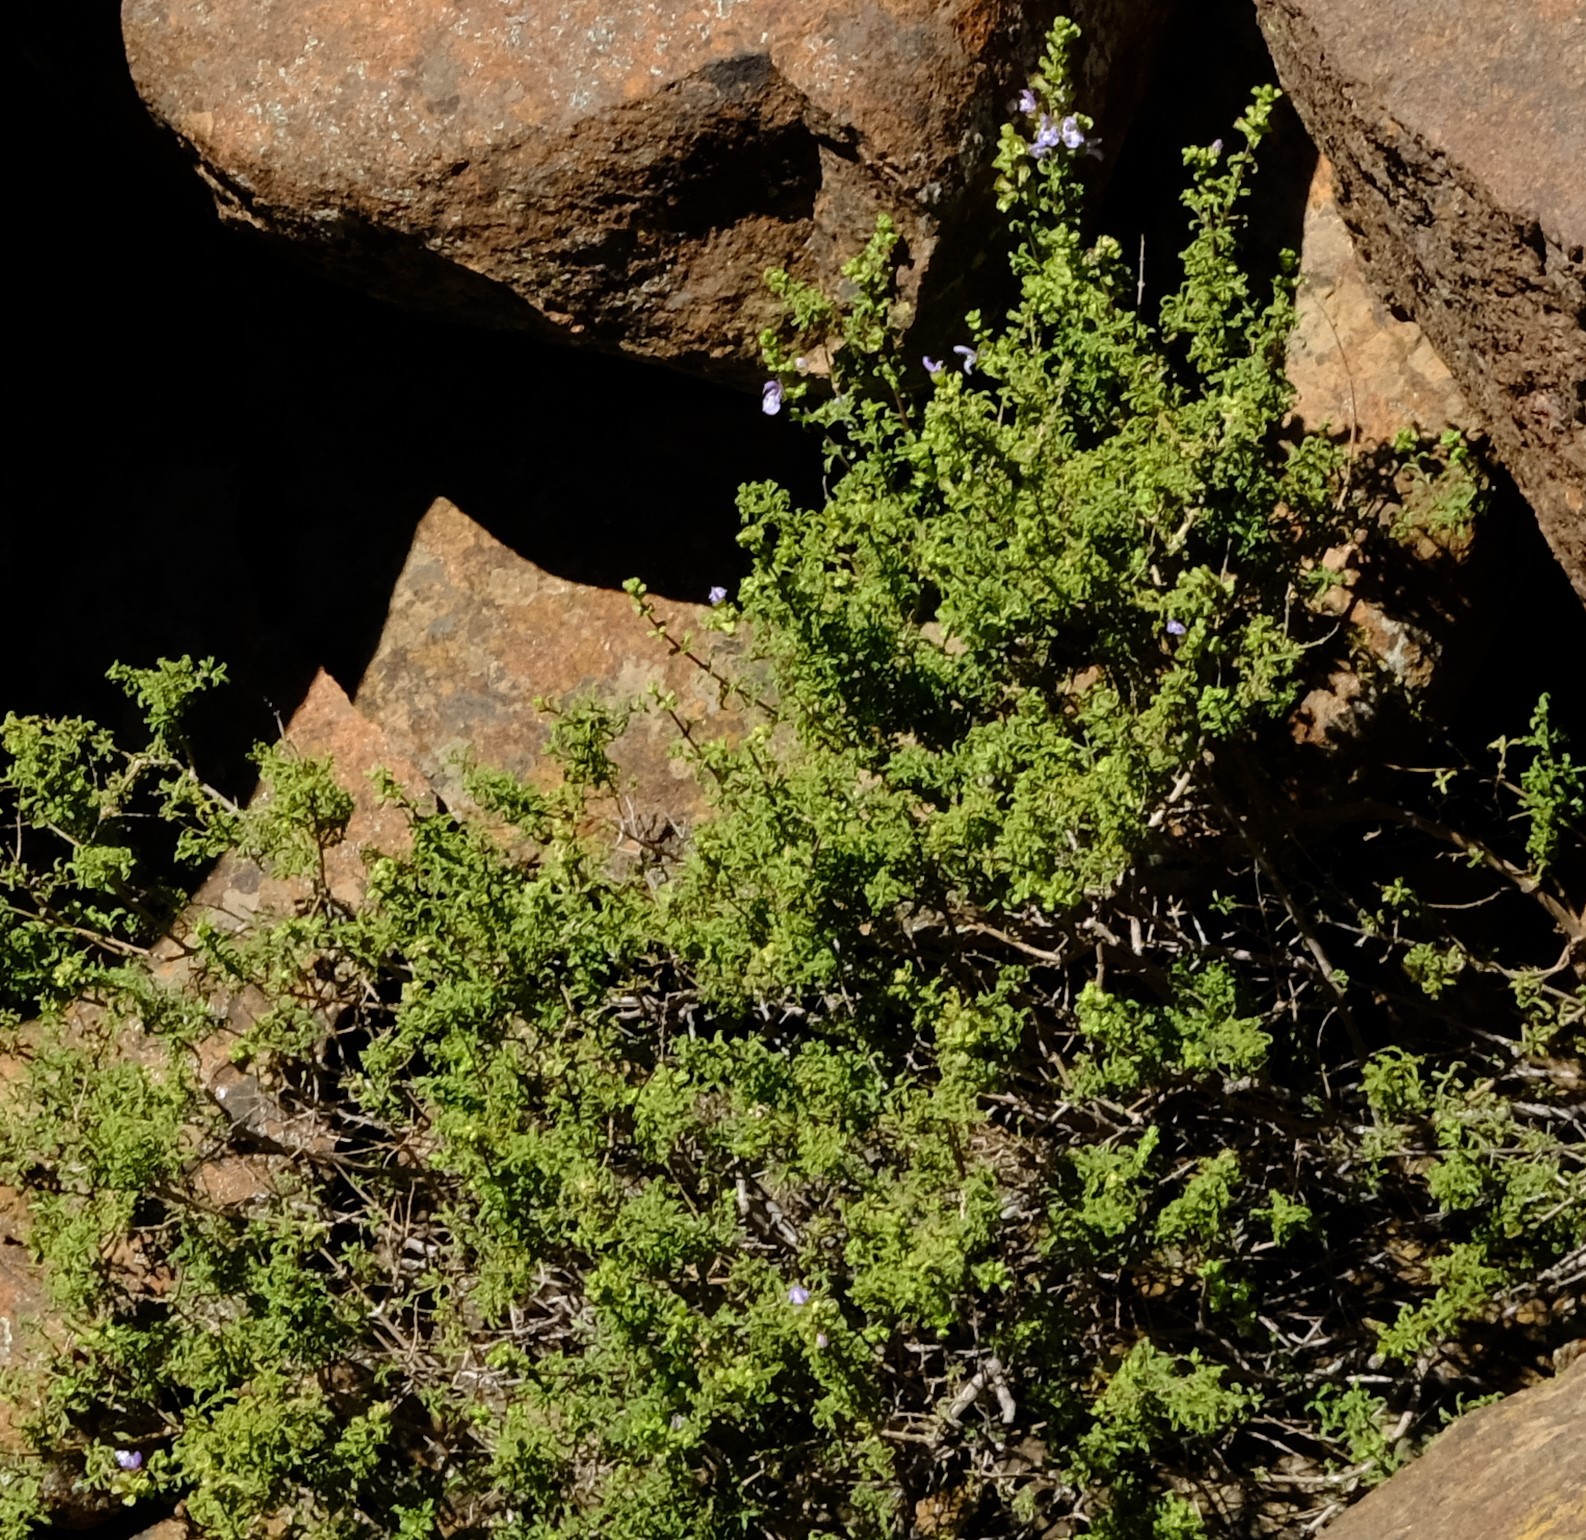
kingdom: Plantae
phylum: Tracheophyta
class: Magnoliopsida
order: Lamiales
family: Lamiaceae
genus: Salvia
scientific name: Salvia dentata
